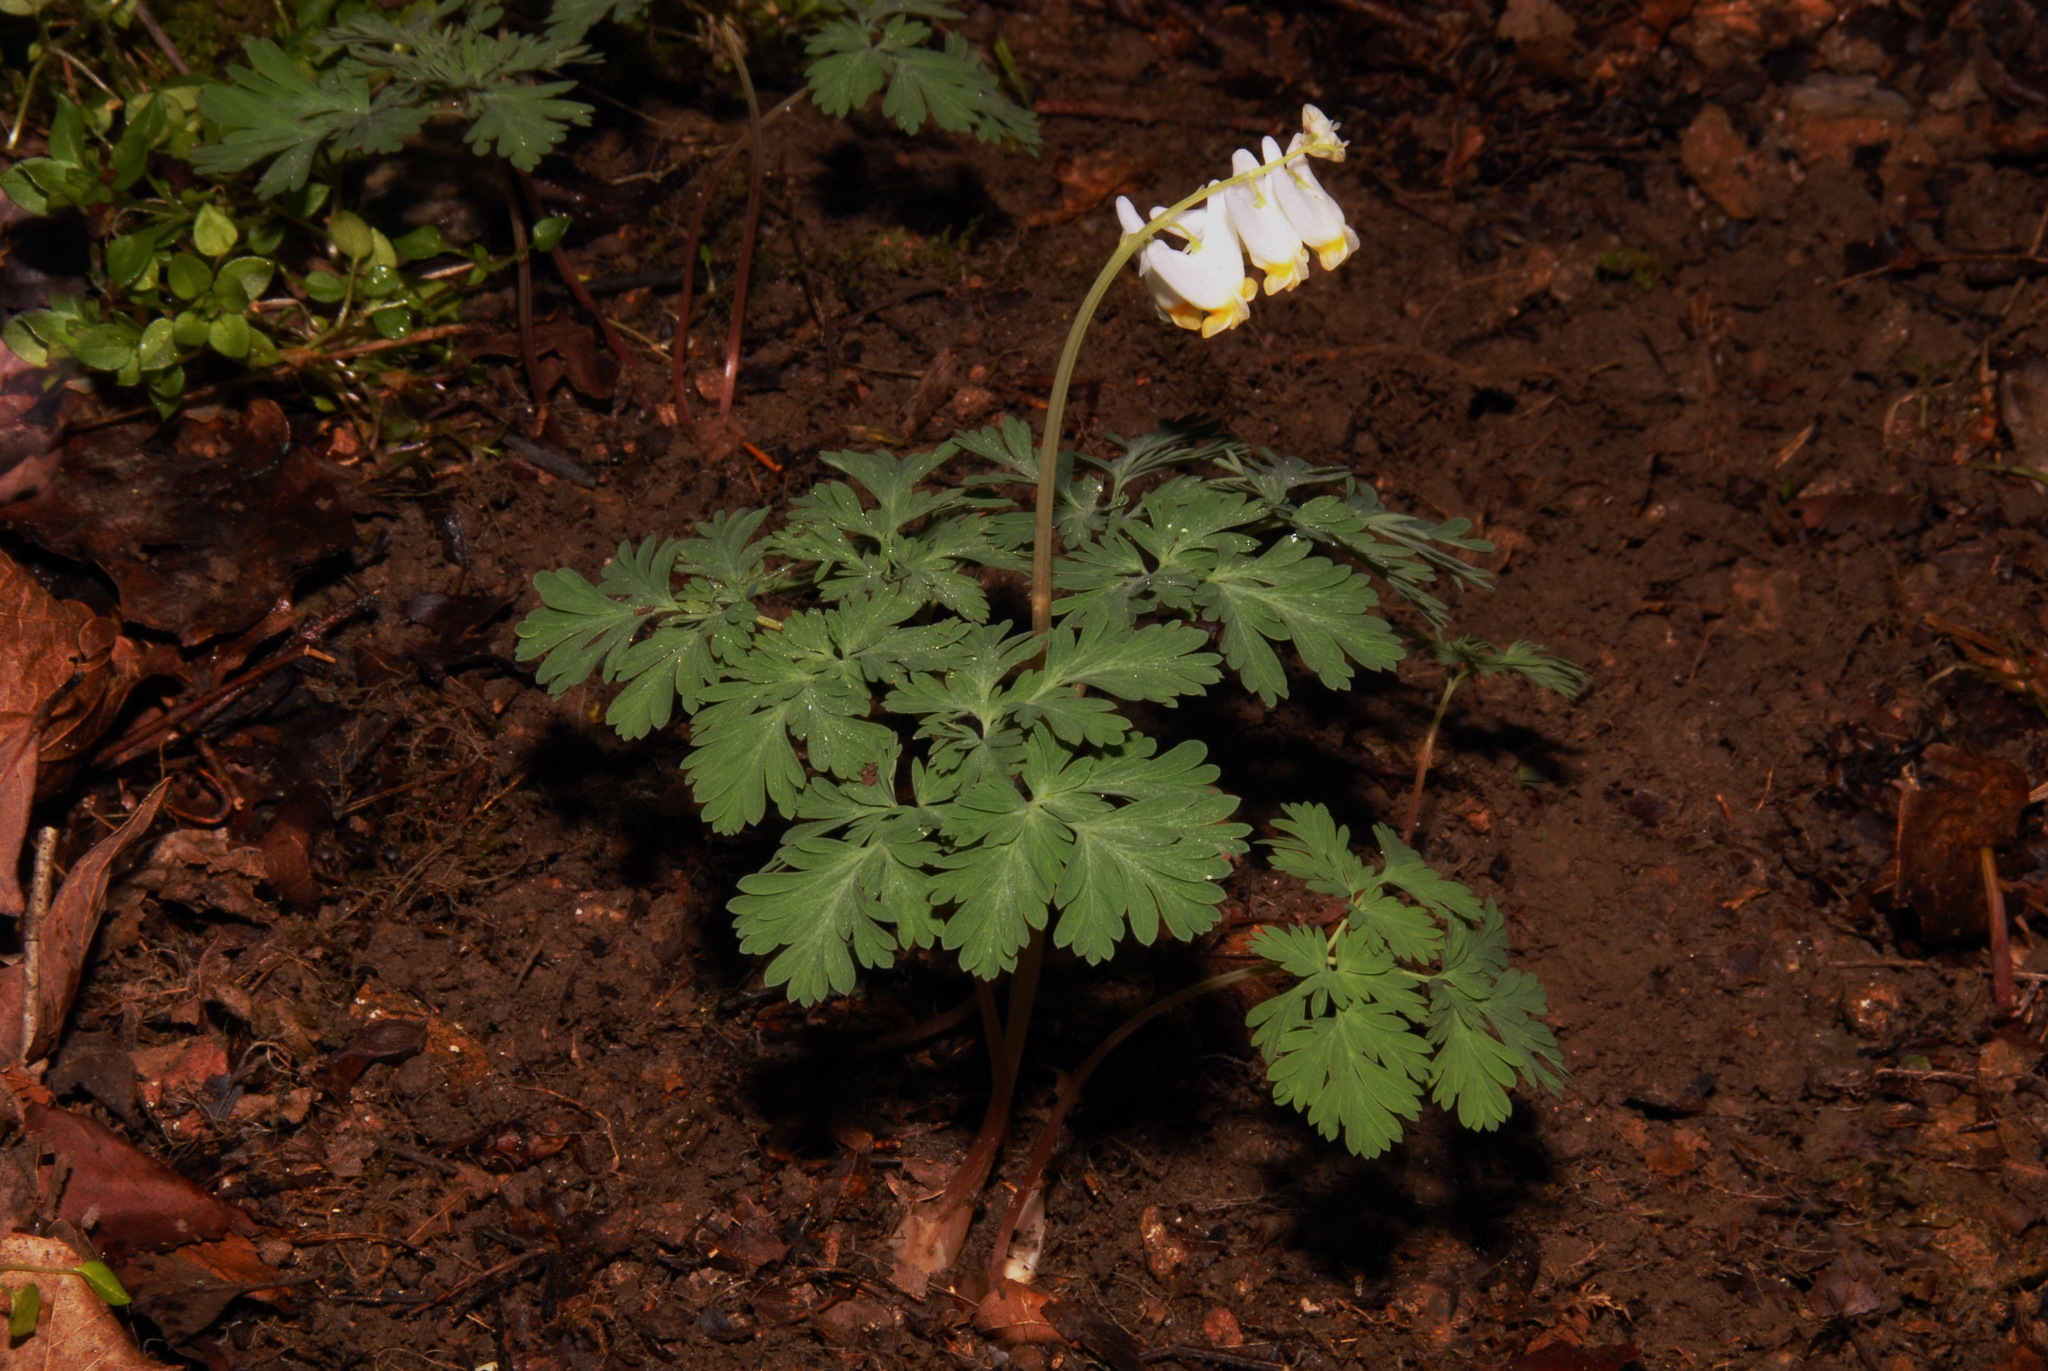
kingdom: Plantae
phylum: Tracheophyta
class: Magnoliopsida
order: Ranunculales
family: Papaveraceae
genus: Dicentra
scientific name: Dicentra cucullaria
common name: Dutchman's breeches
